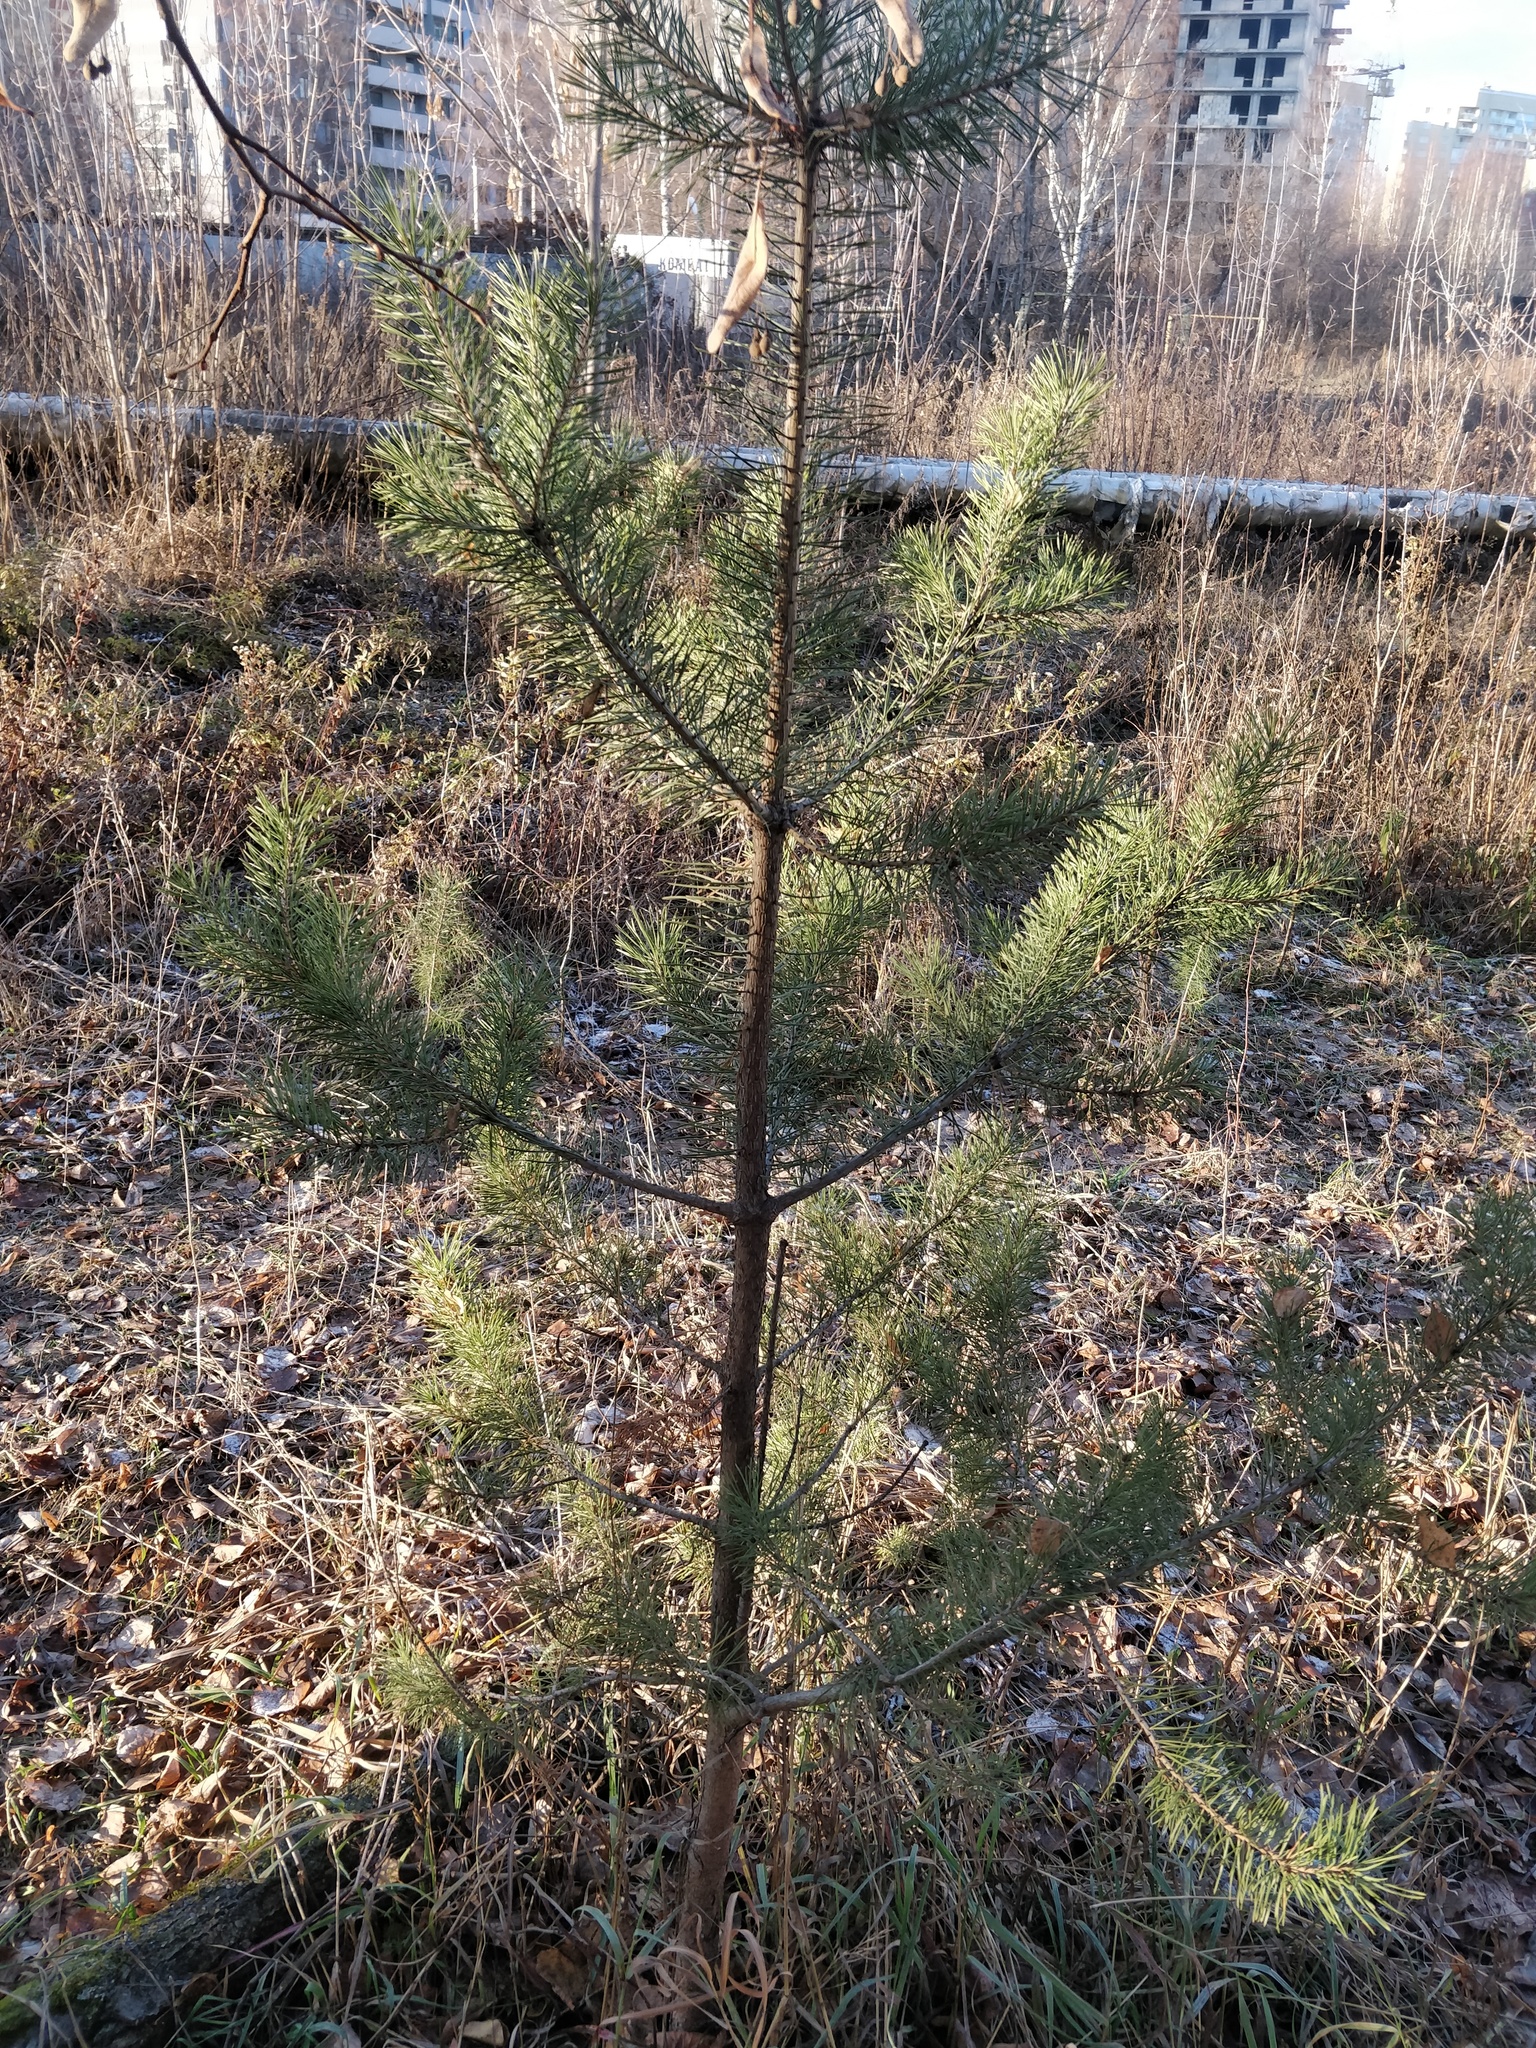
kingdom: Plantae
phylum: Tracheophyta
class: Pinopsida
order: Pinales
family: Pinaceae
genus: Pinus
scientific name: Pinus sylvestris
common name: Scots pine
